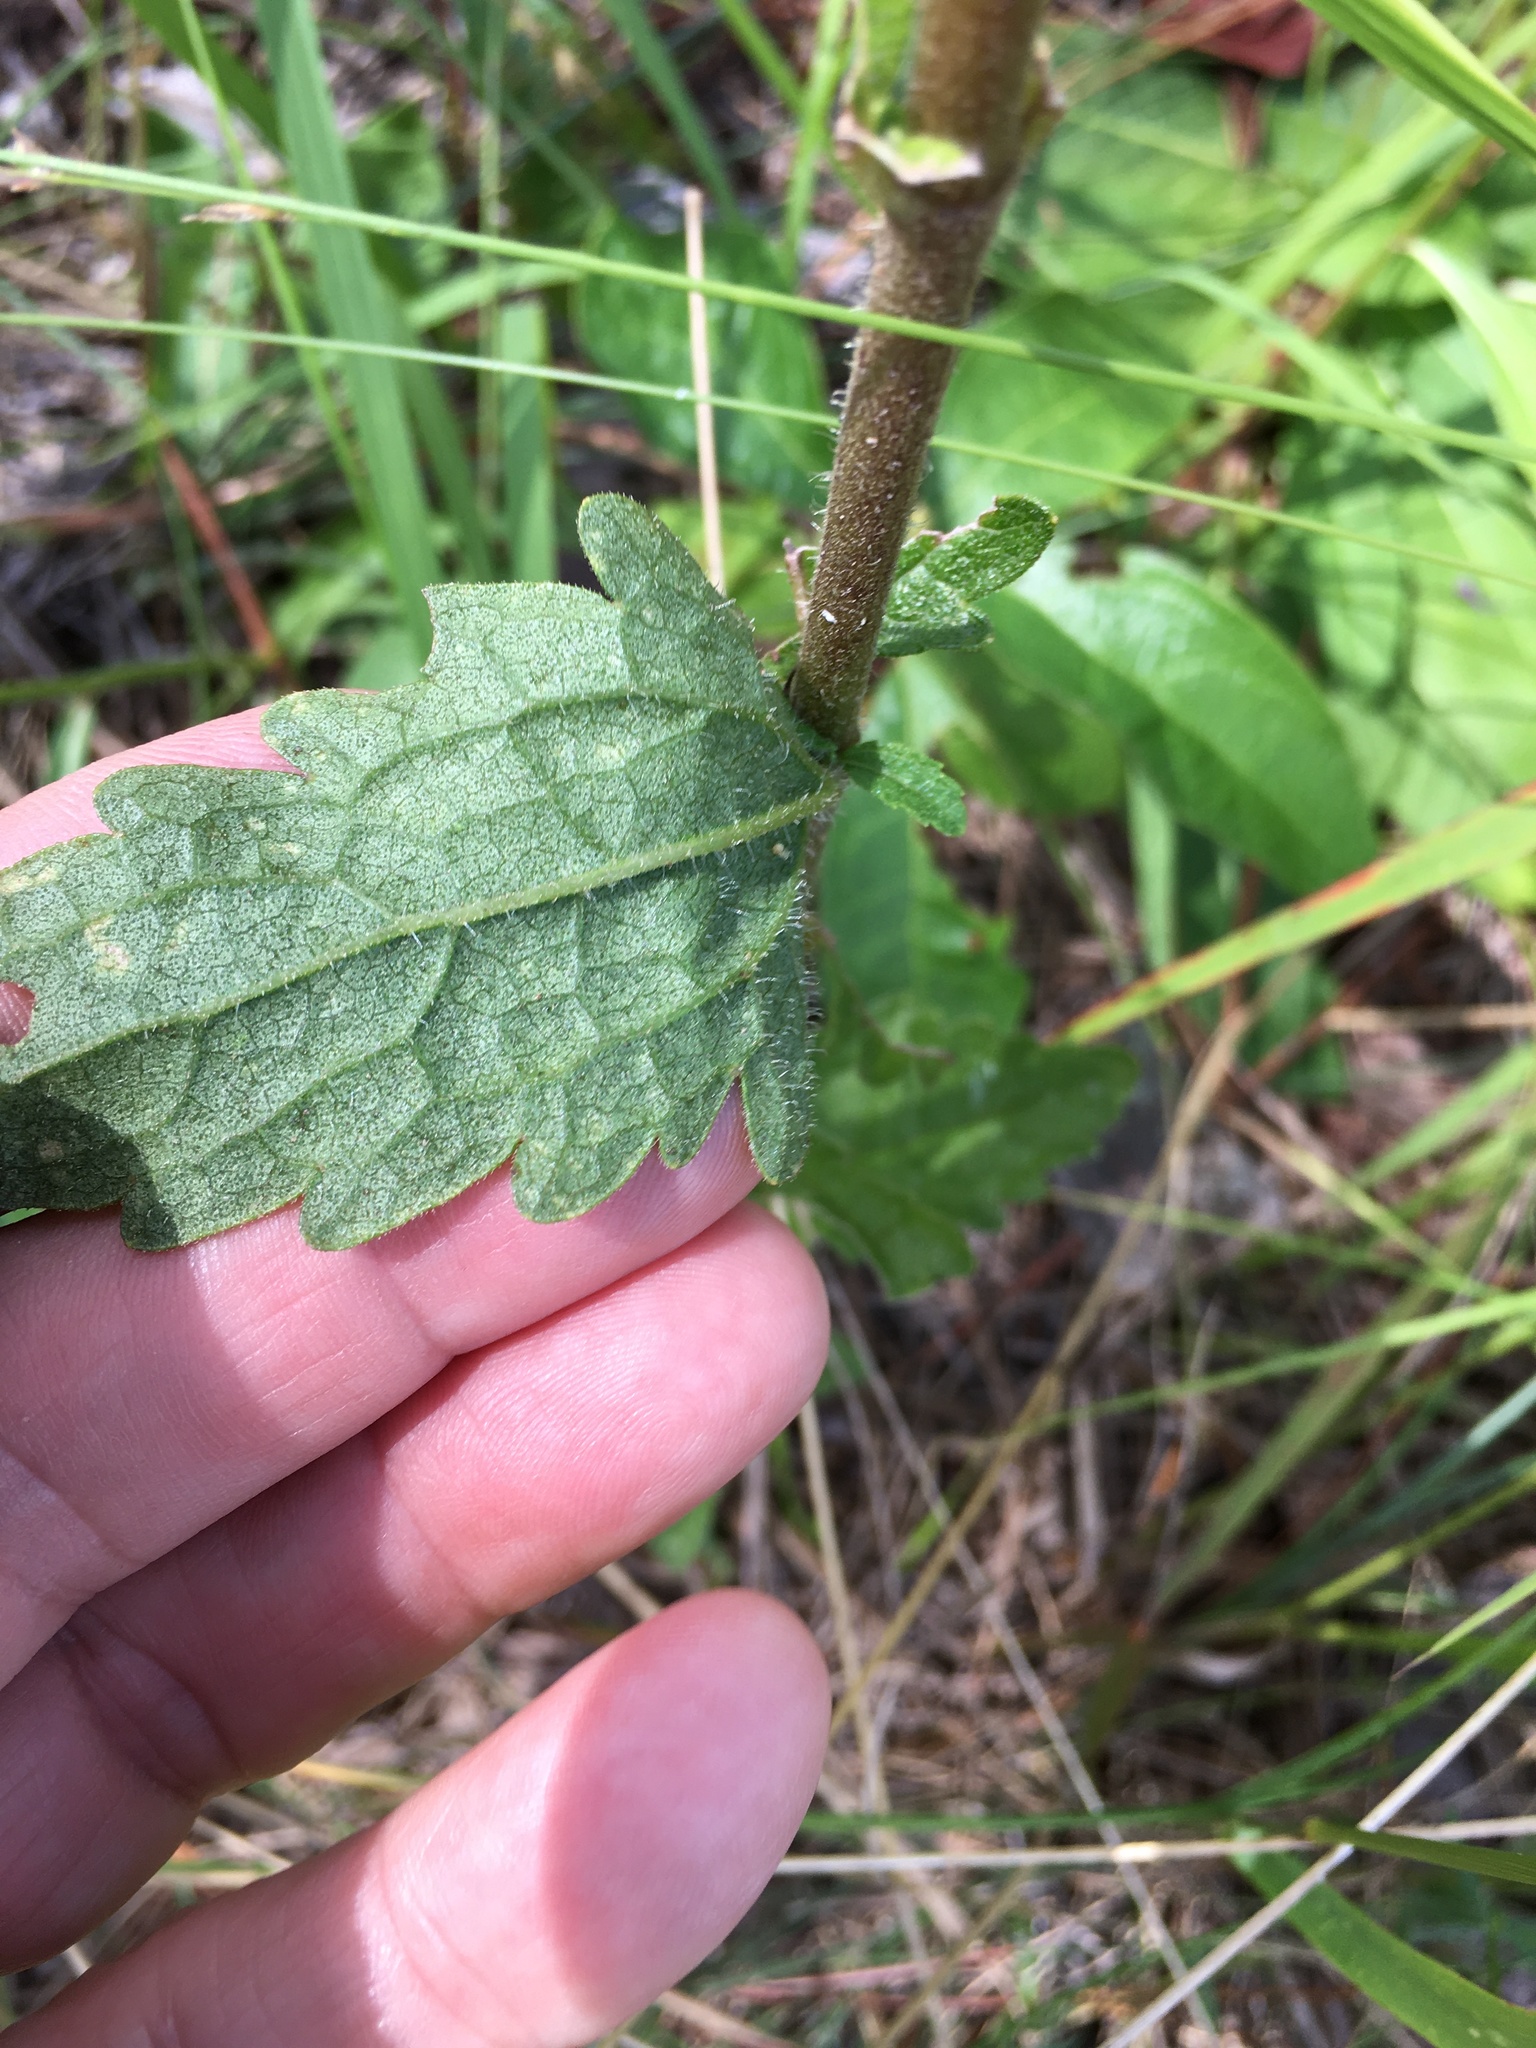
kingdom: Plantae
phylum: Tracheophyta
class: Magnoliopsida
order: Asterales
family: Asteraceae
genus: Eupatorium
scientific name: Eupatorium pilosum
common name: Rough boneset
